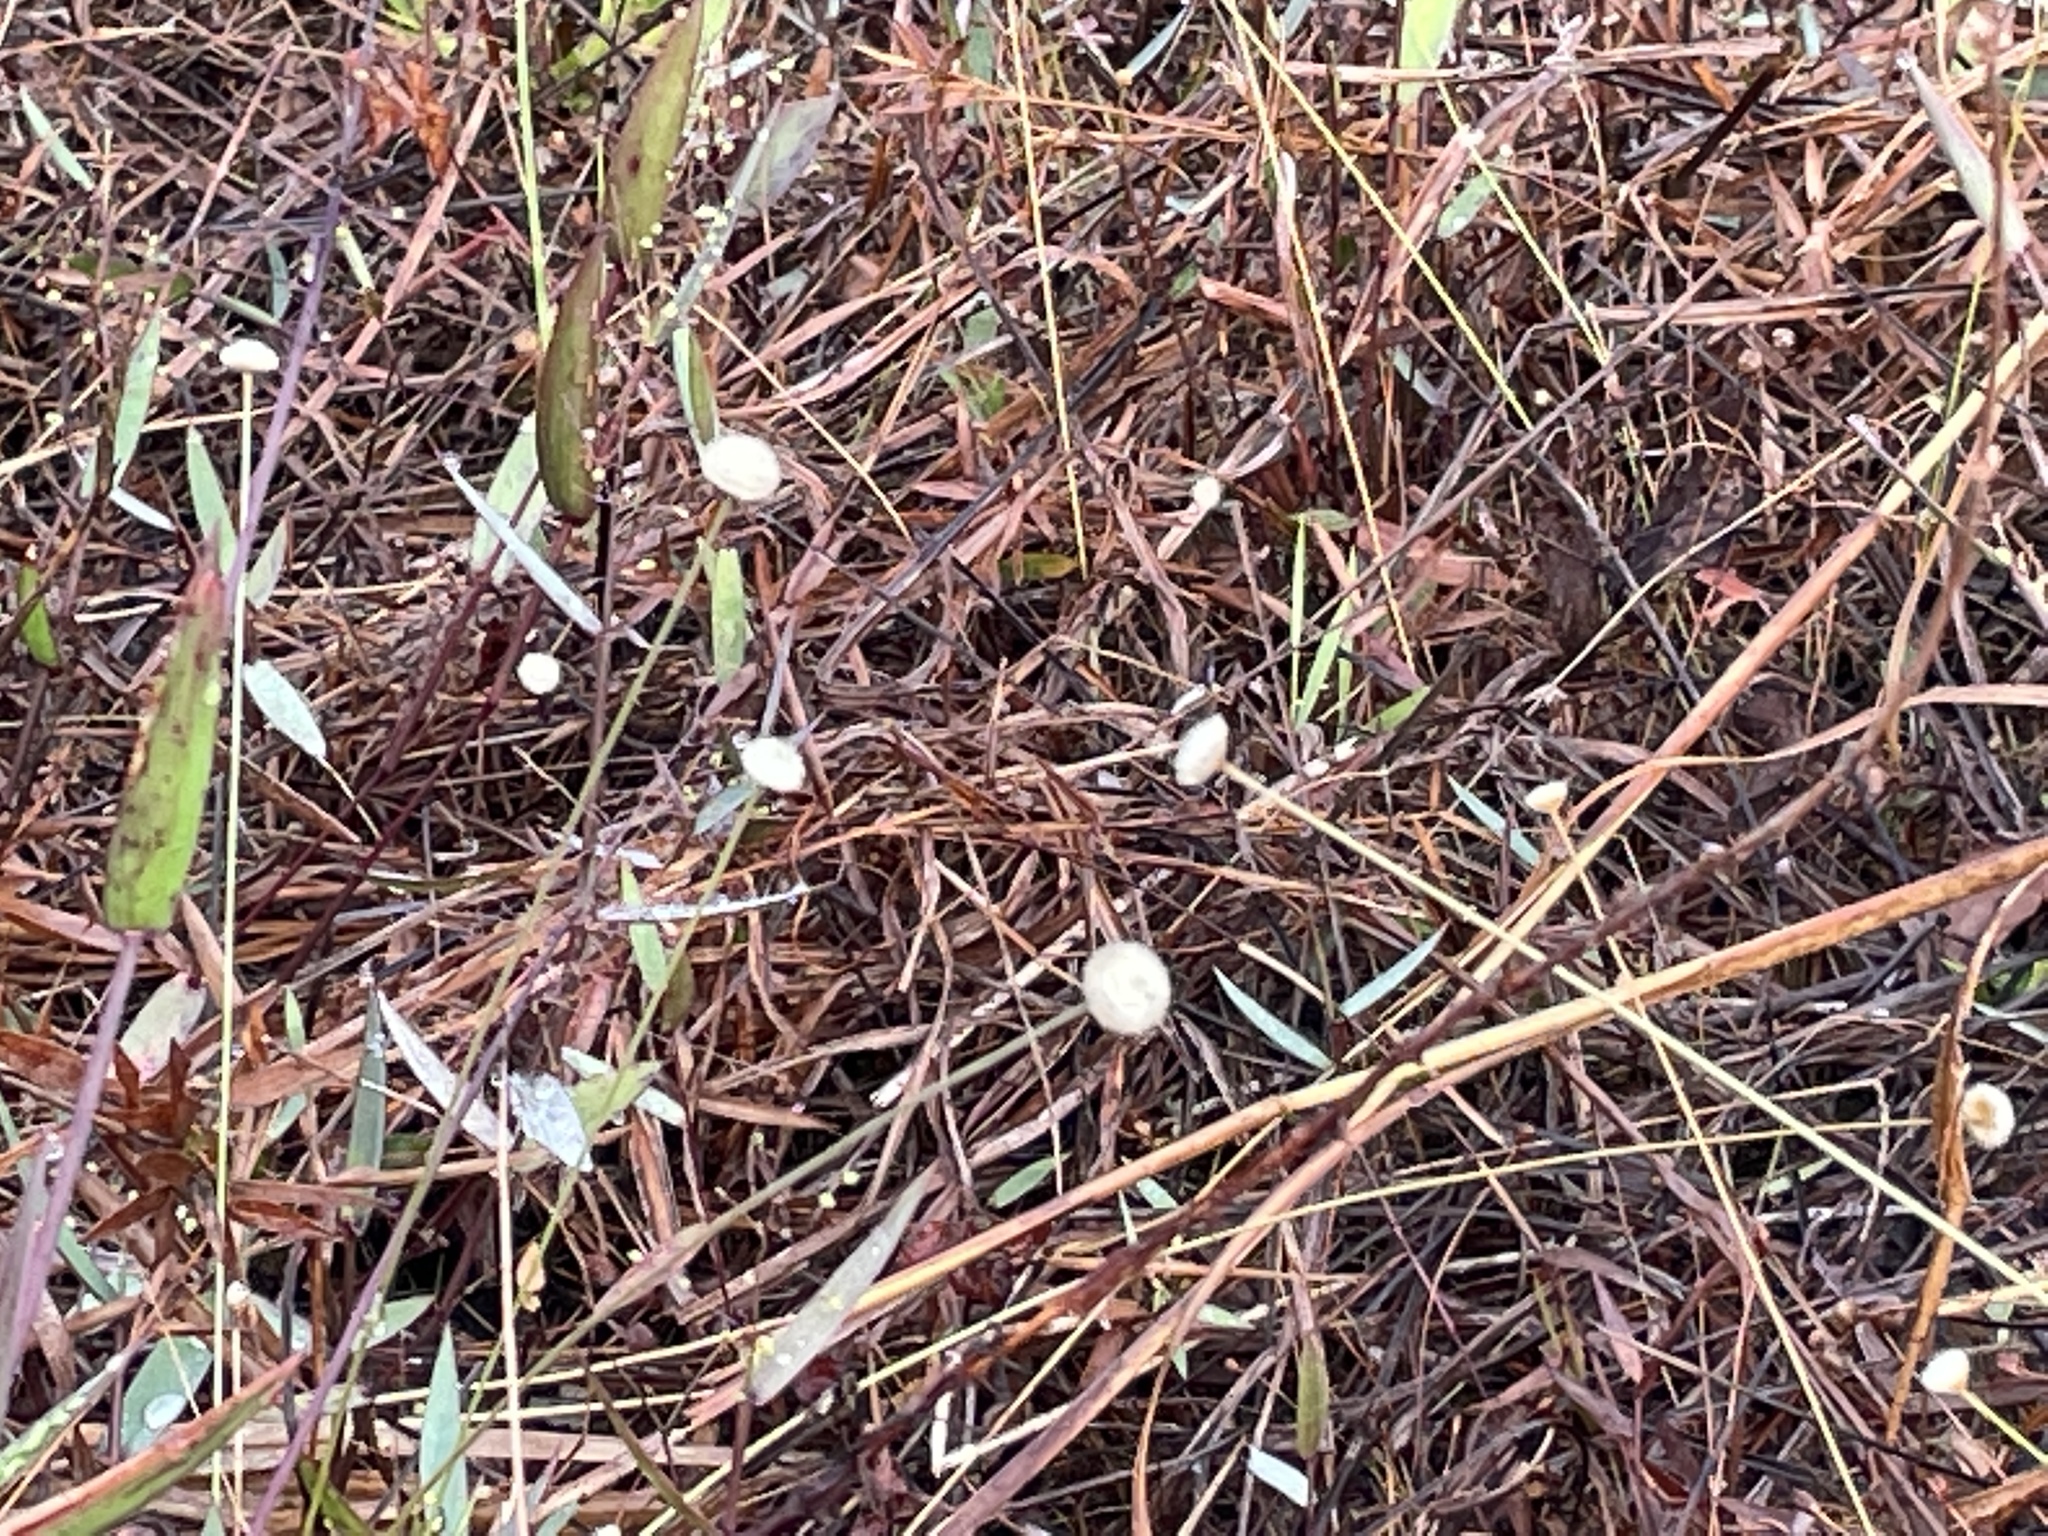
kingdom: Plantae
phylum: Tracheophyta
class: Liliopsida
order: Poales
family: Eriocaulaceae
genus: Syngonanthus
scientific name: Syngonanthus flavidulus
